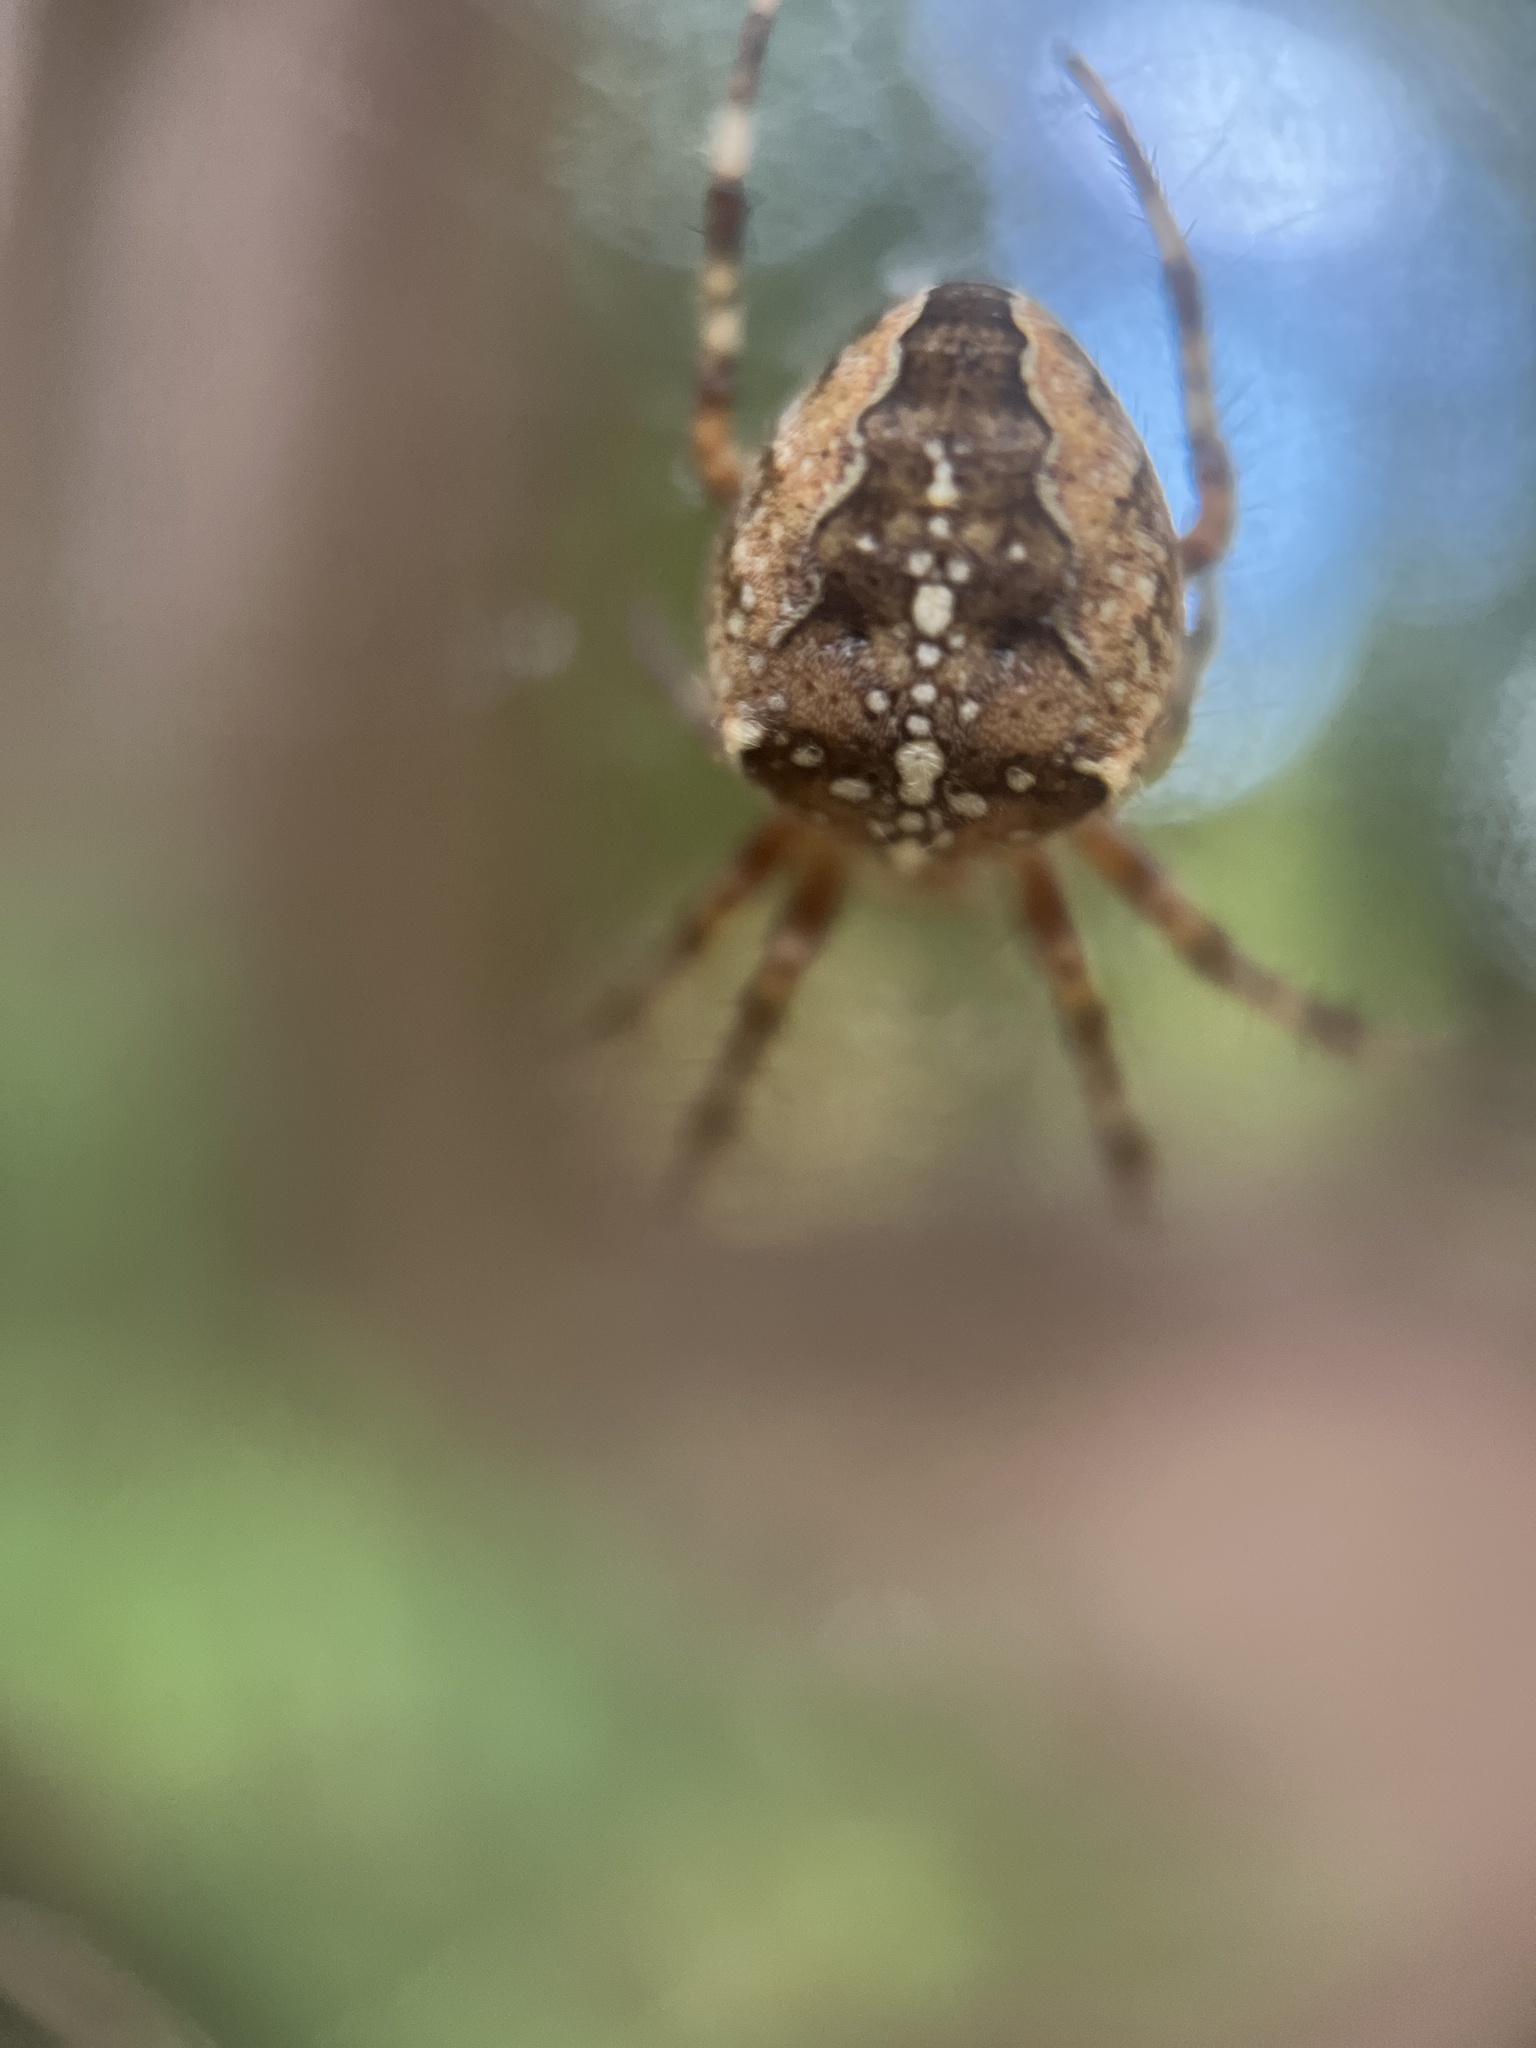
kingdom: Animalia
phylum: Arthropoda
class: Arachnida
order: Araneae
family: Araneidae
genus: Araneus
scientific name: Araneus diadematus
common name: Cross orbweaver
